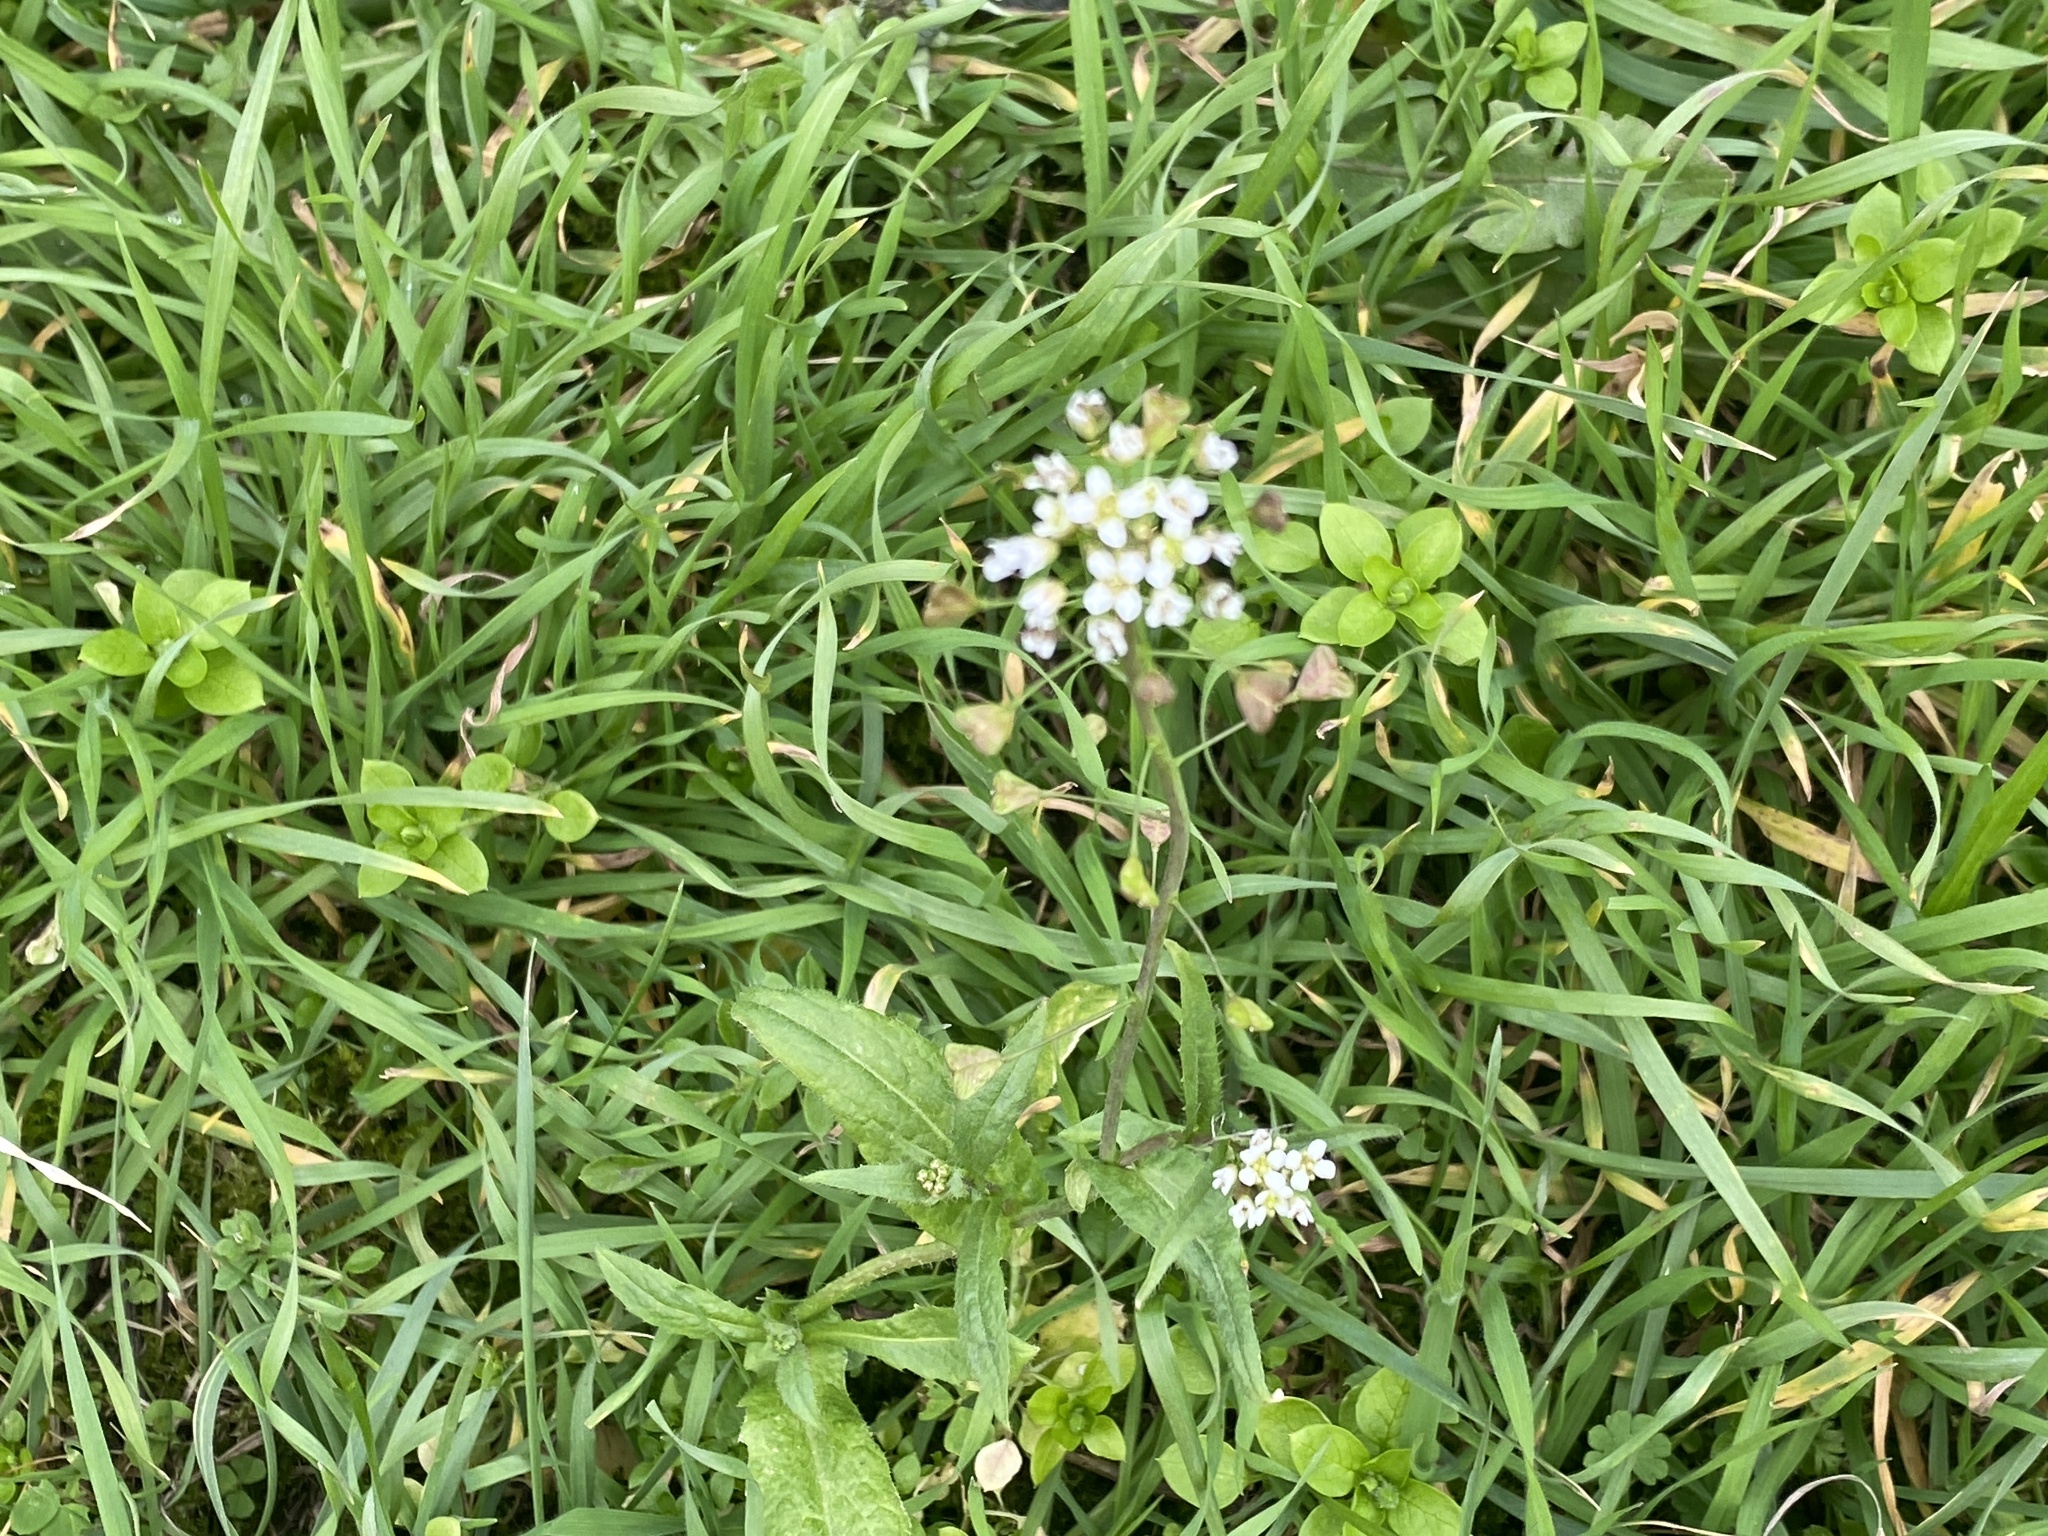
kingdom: Plantae
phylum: Tracheophyta
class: Magnoliopsida
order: Brassicales
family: Brassicaceae
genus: Capsella
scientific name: Capsella bursa-pastoris
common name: Shepherd's purse
